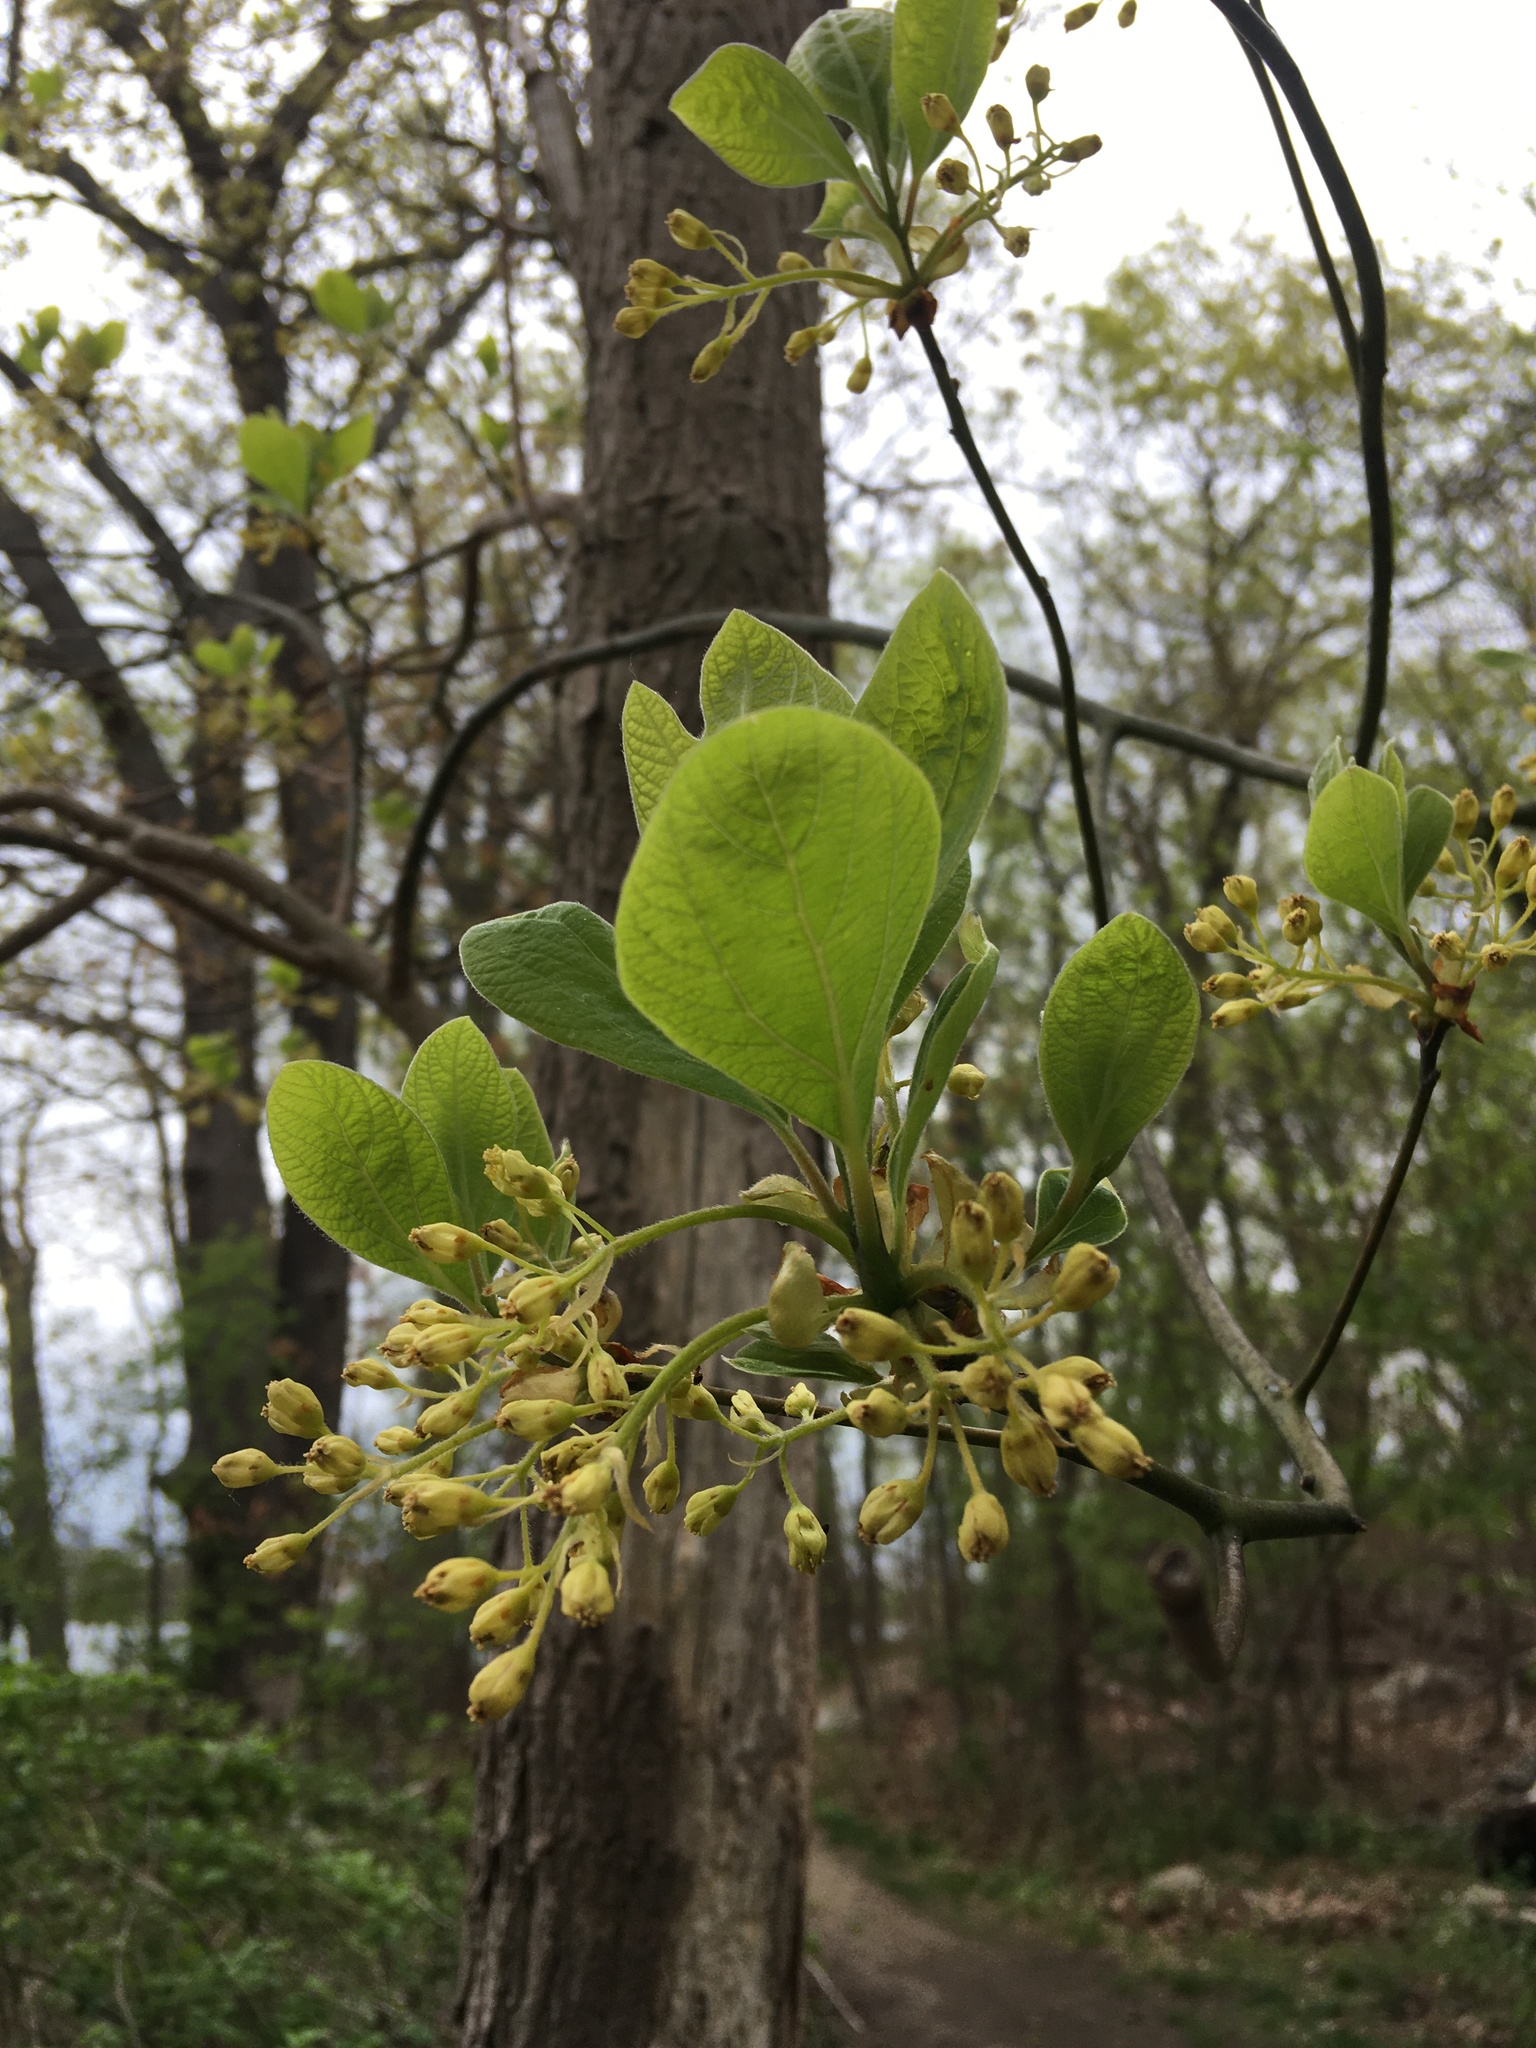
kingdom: Plantae
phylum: Tracheophyta
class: Magnoliopsida
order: Laurales
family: Lauraceae
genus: Sassafras
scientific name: Sassafras albidum
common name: Sassafras
